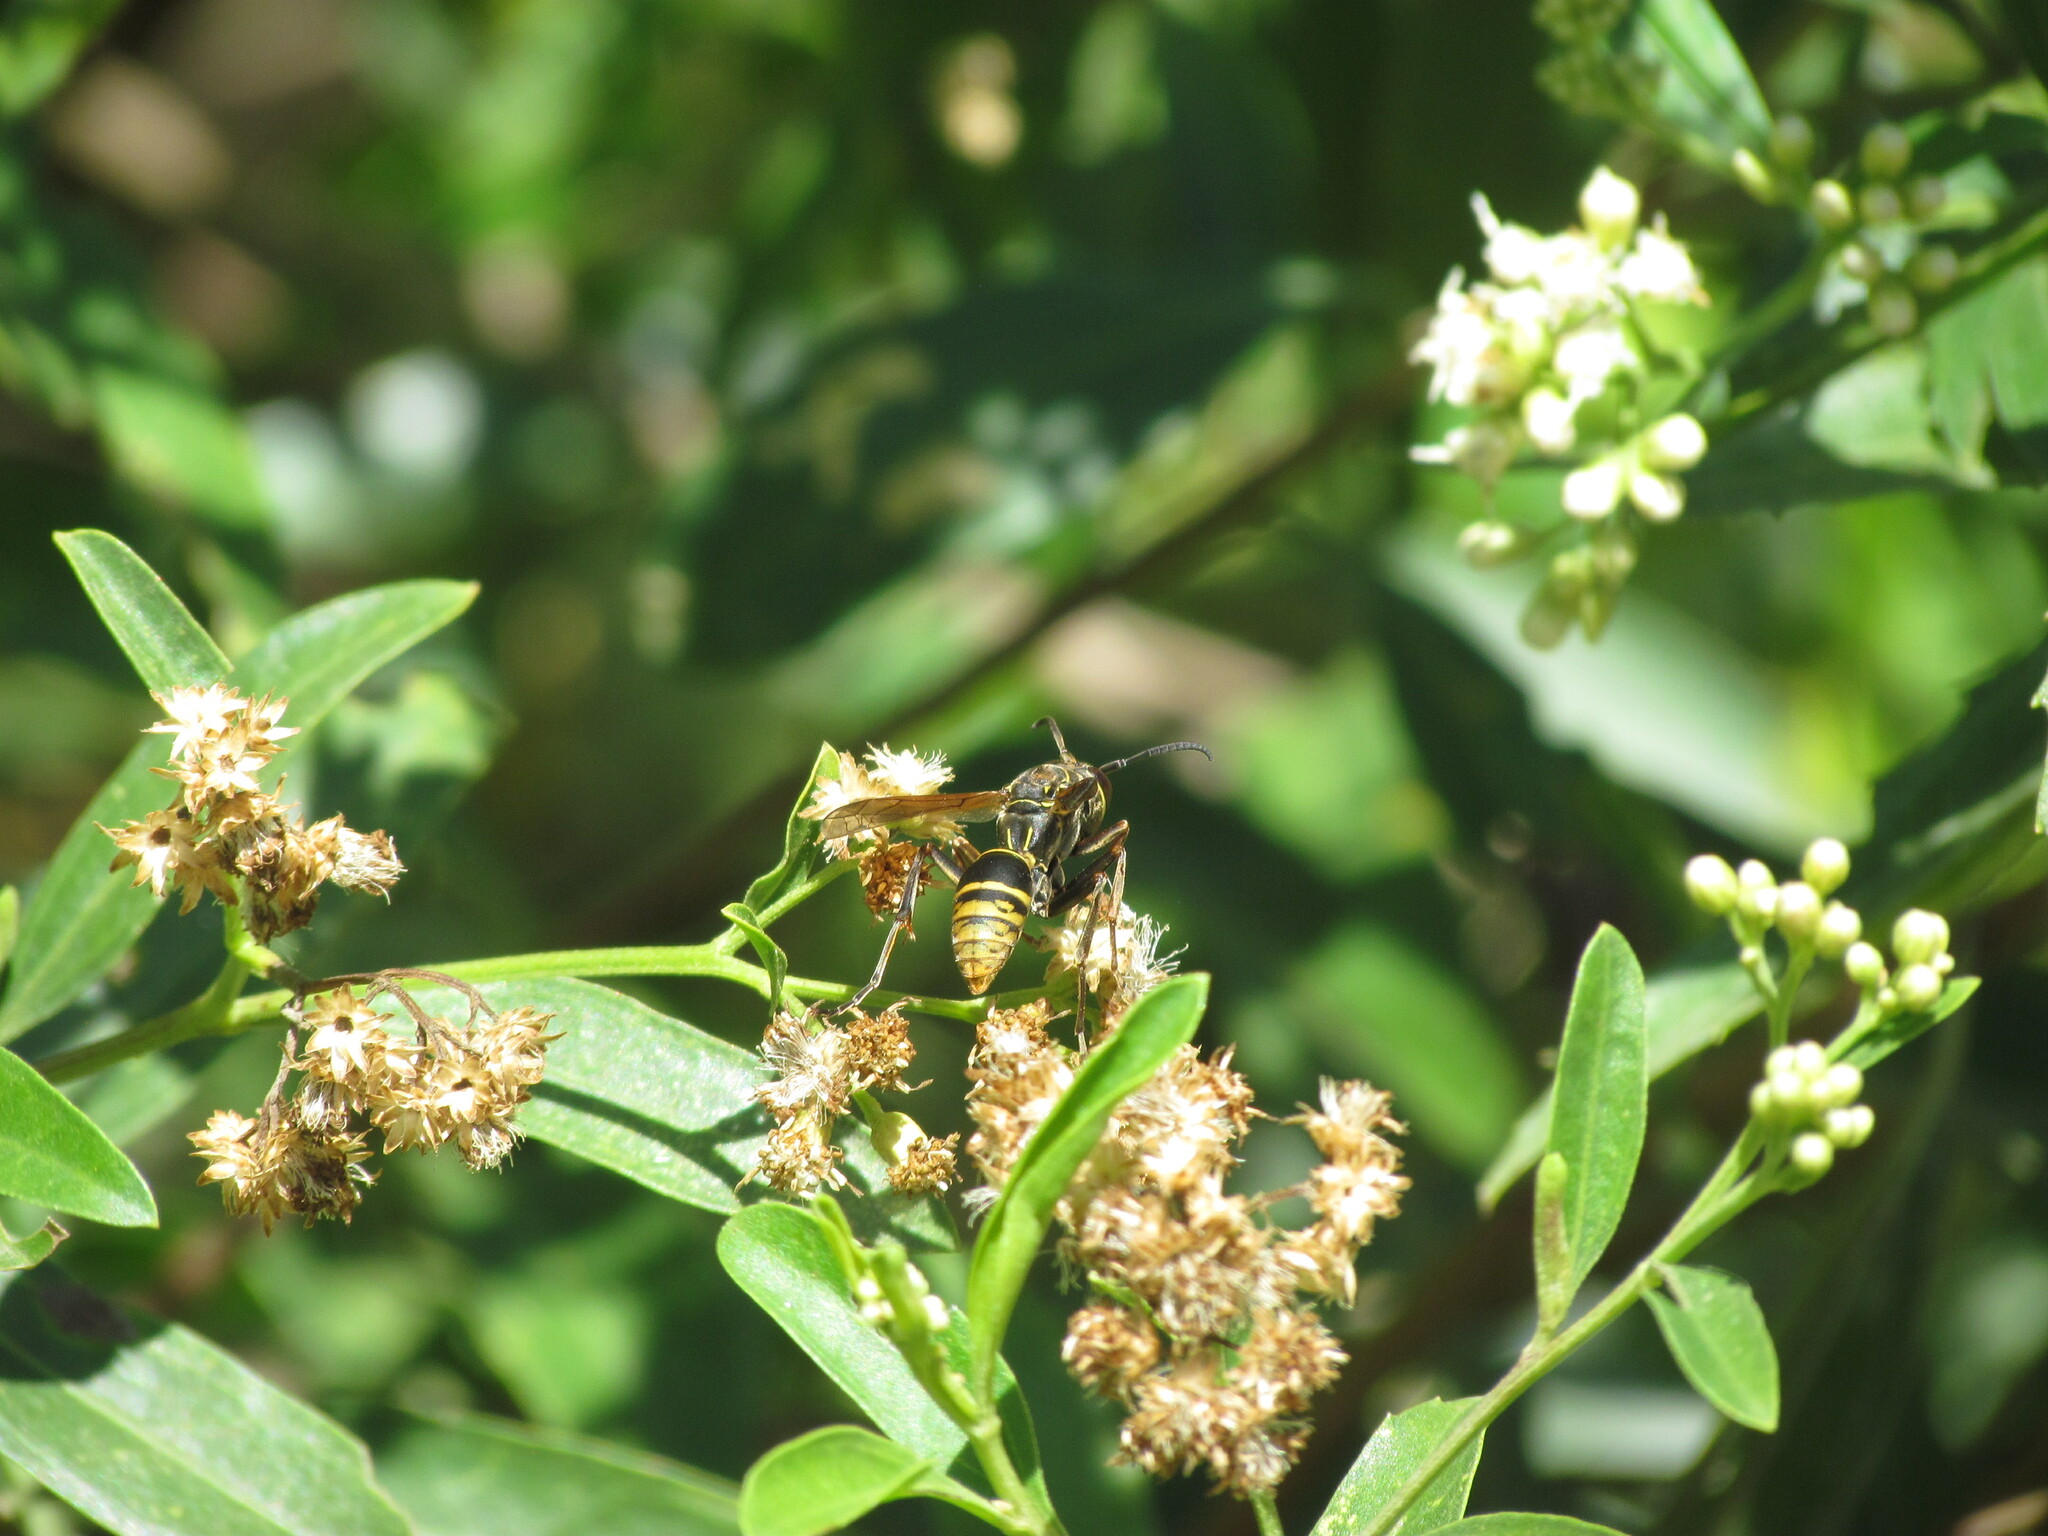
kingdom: Animalia
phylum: Arthropoda
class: Insecta
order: Hymenoptera
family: Eumenidae
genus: Polistes
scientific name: Polistes cinerascens
